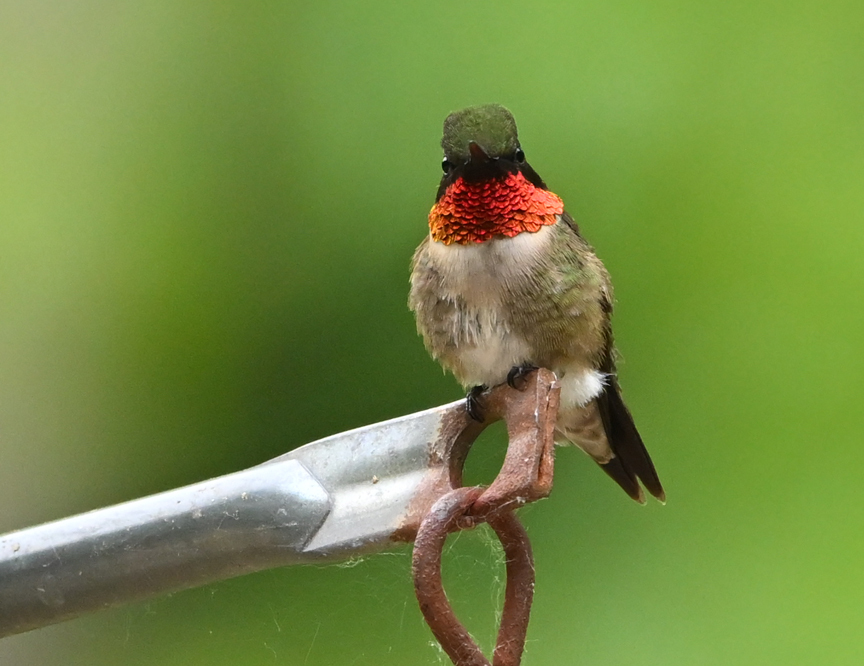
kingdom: Animalia
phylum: Chordata
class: Aves
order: Apodiformes
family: Trochilidae
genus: Archilochus
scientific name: Archilochus colubris
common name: Ruby-throated hummingbird
